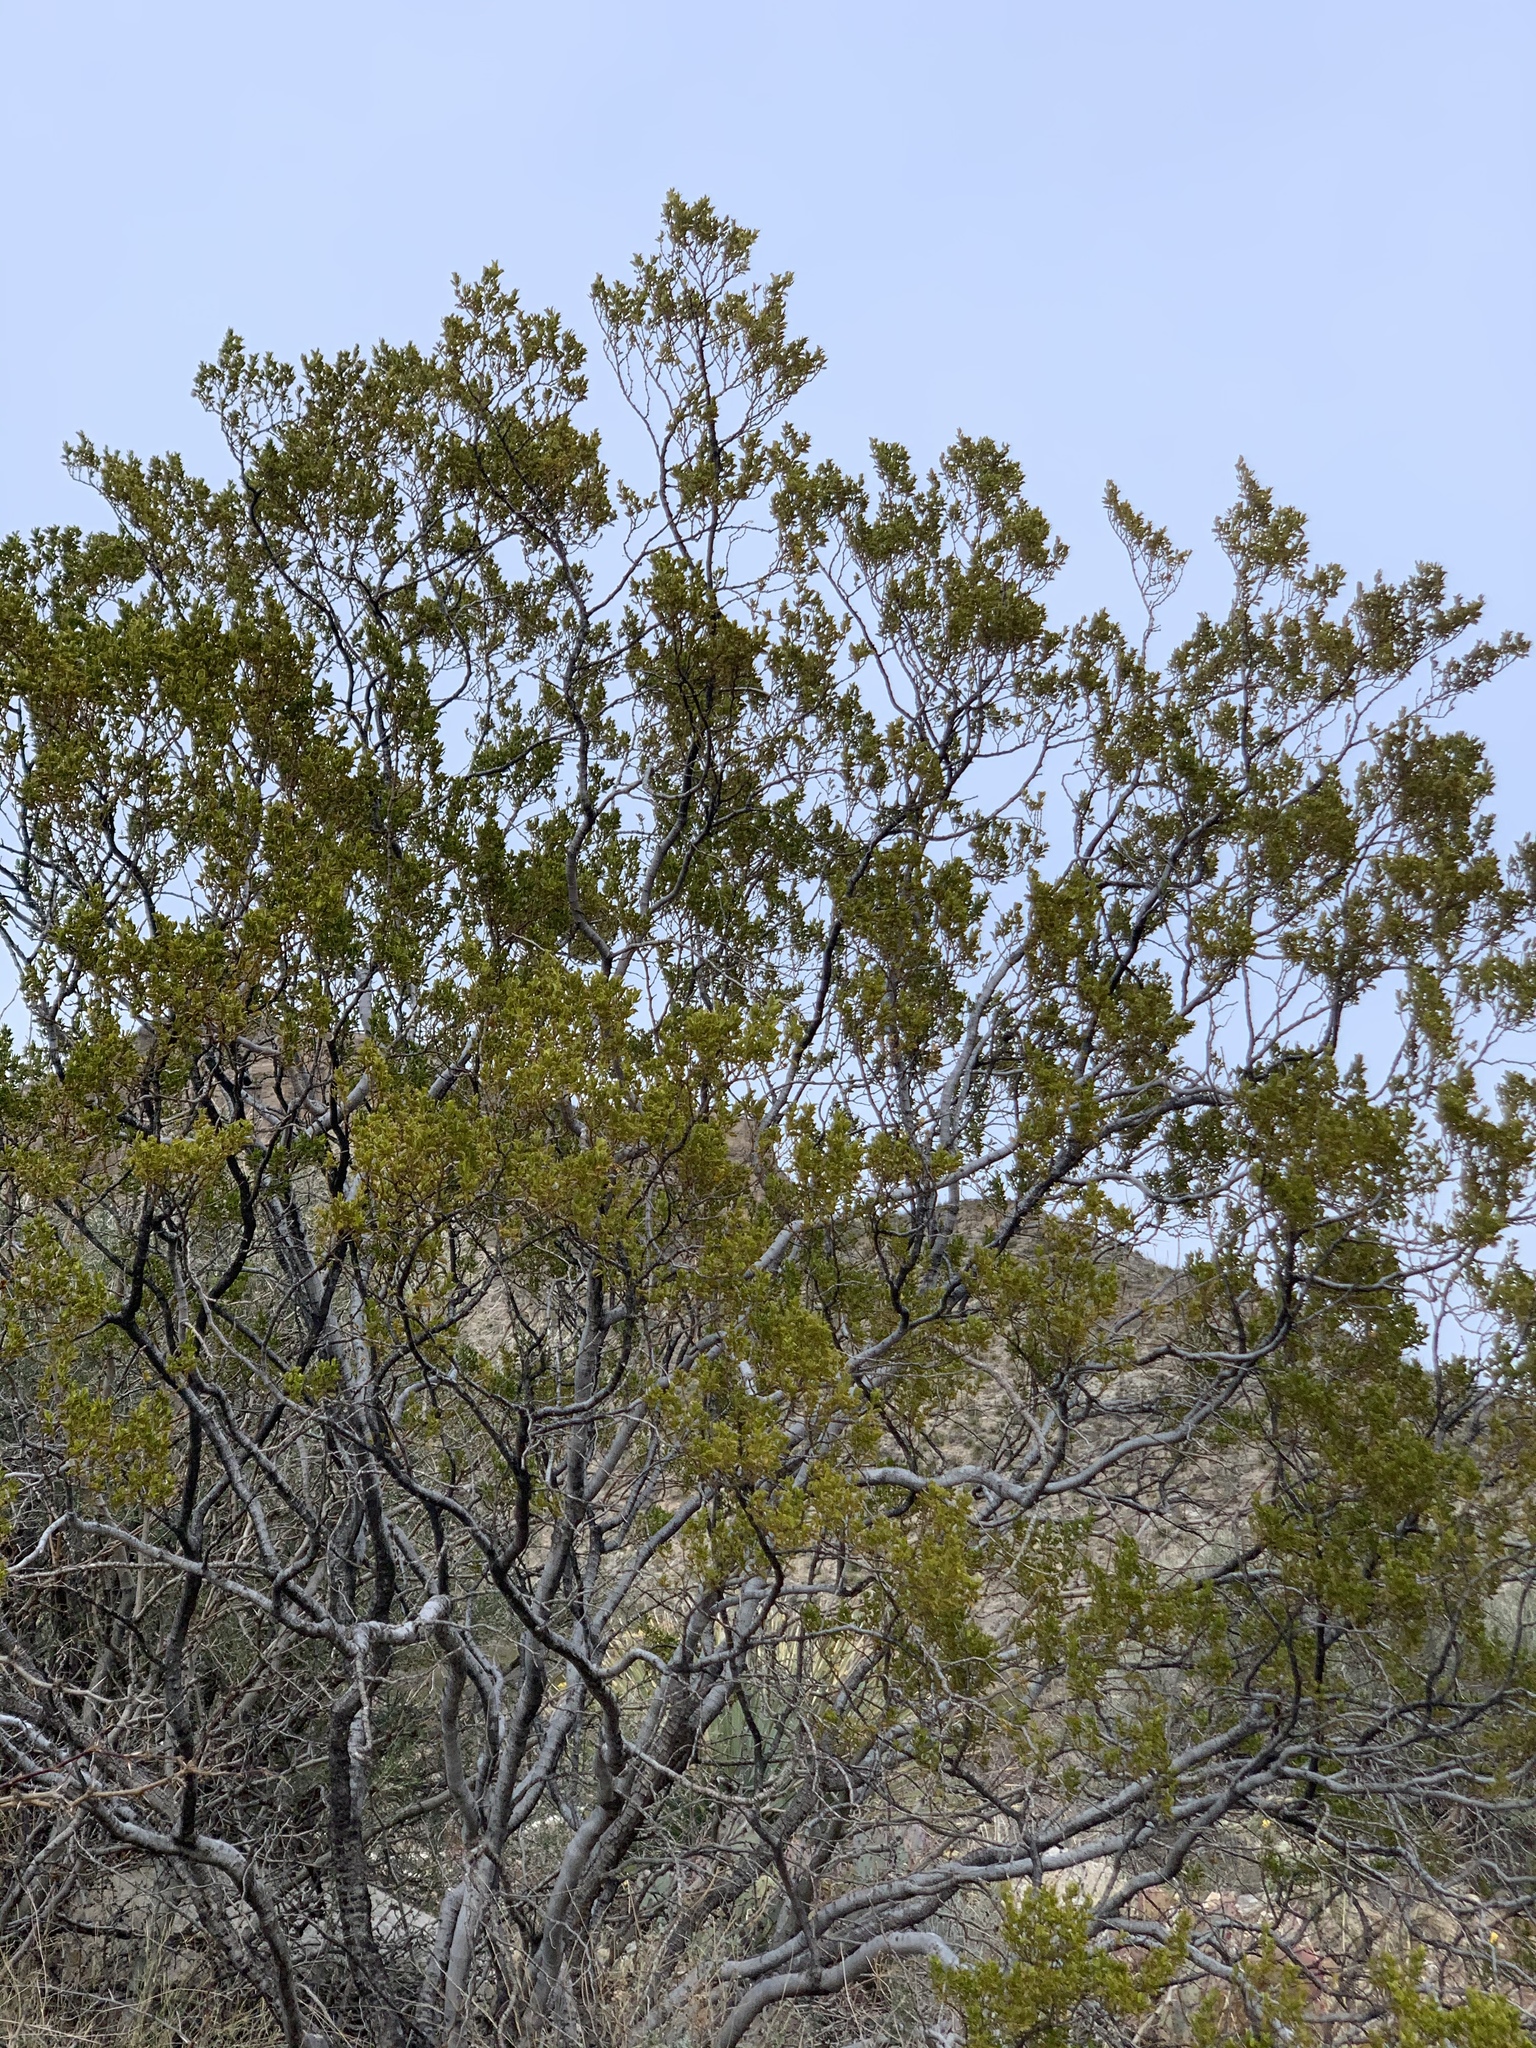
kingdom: Plantae
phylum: Tracheophyta
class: Magnoliopsida
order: Zygophyllales
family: Zygophyllaceae
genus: Larrea
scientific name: Larrea tridentata
